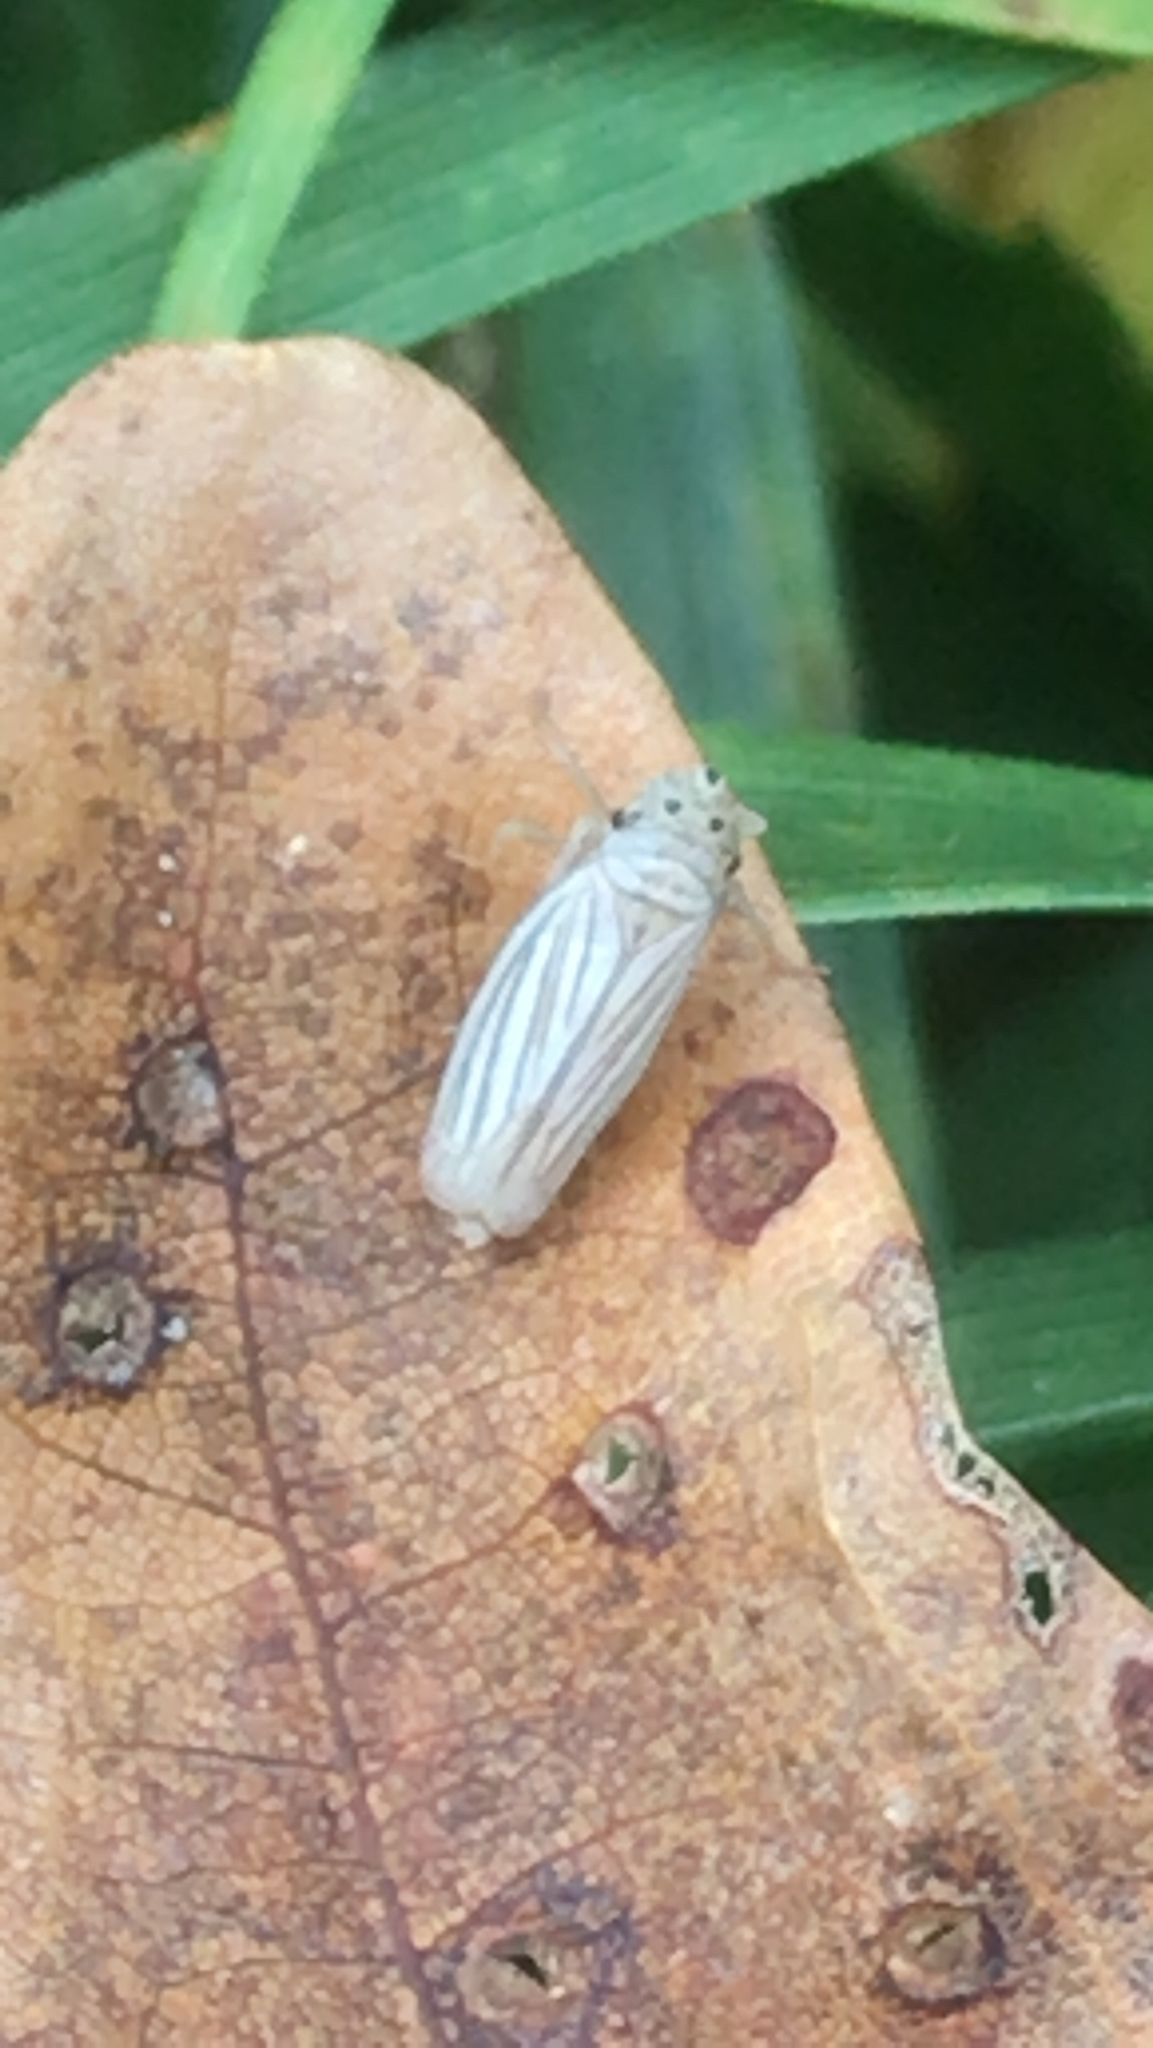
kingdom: Animalia
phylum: Arthropoda
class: Insecta
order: Hemiptera
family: Cicadellidae
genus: Provancherana
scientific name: Provancherana tripunctata
